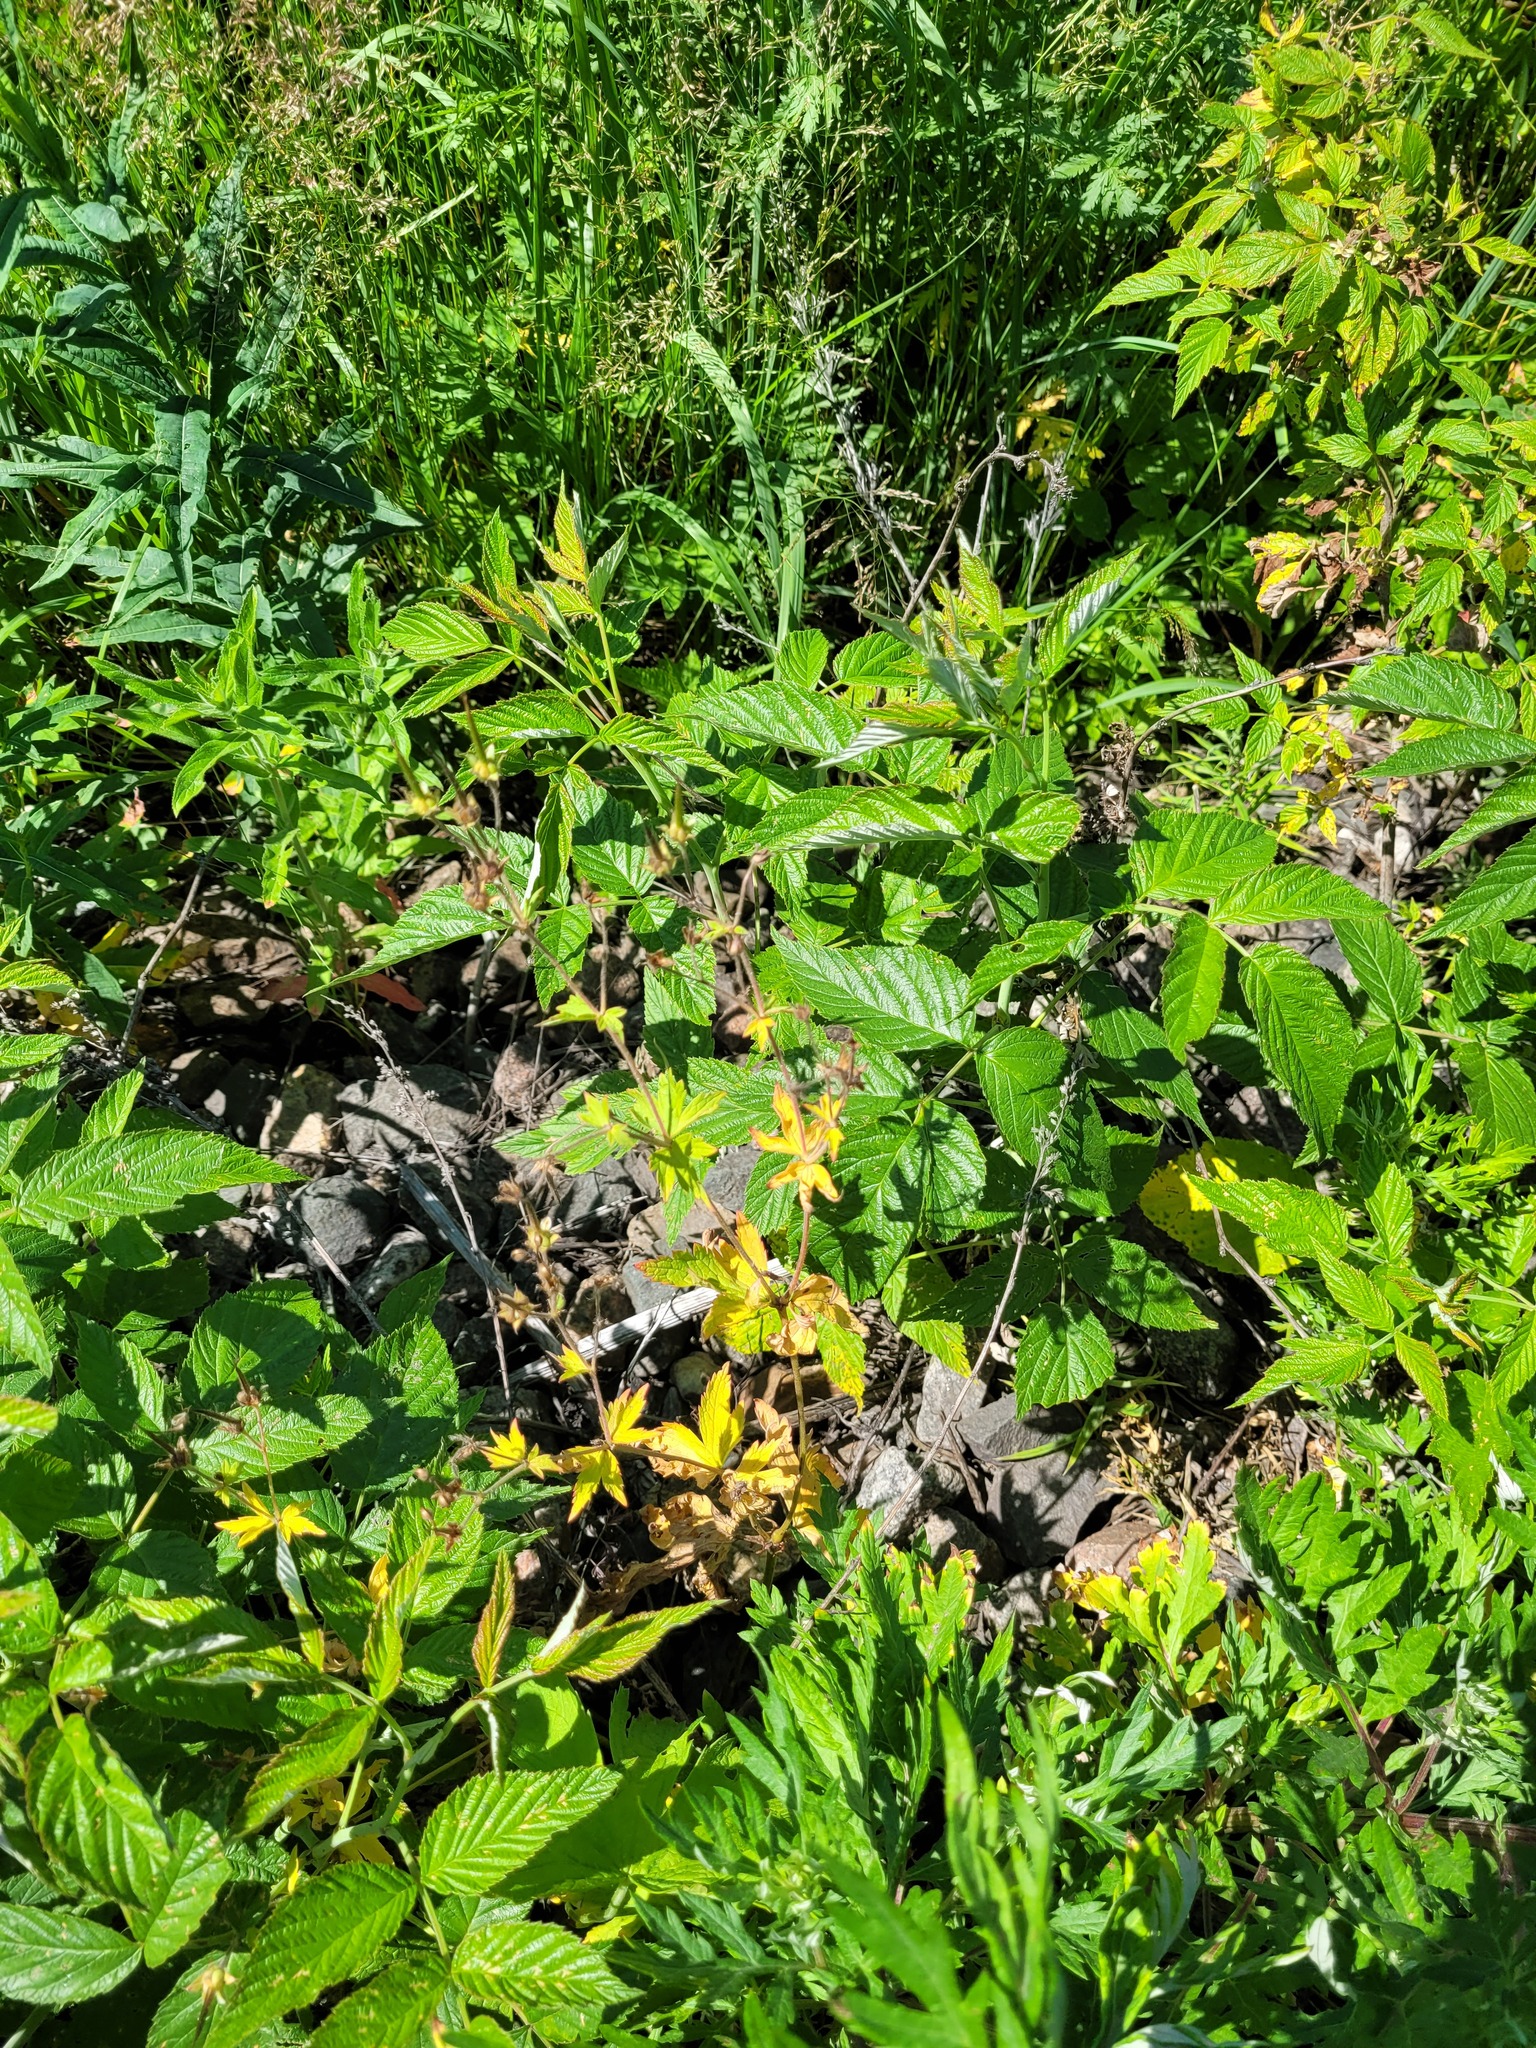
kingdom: Plantae
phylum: Tracheophyta
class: Magnoliopsida
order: Geraniales
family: Geraniaceae
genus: Geranium
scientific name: Geranium sylvaticum
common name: Wood crane's-bill
